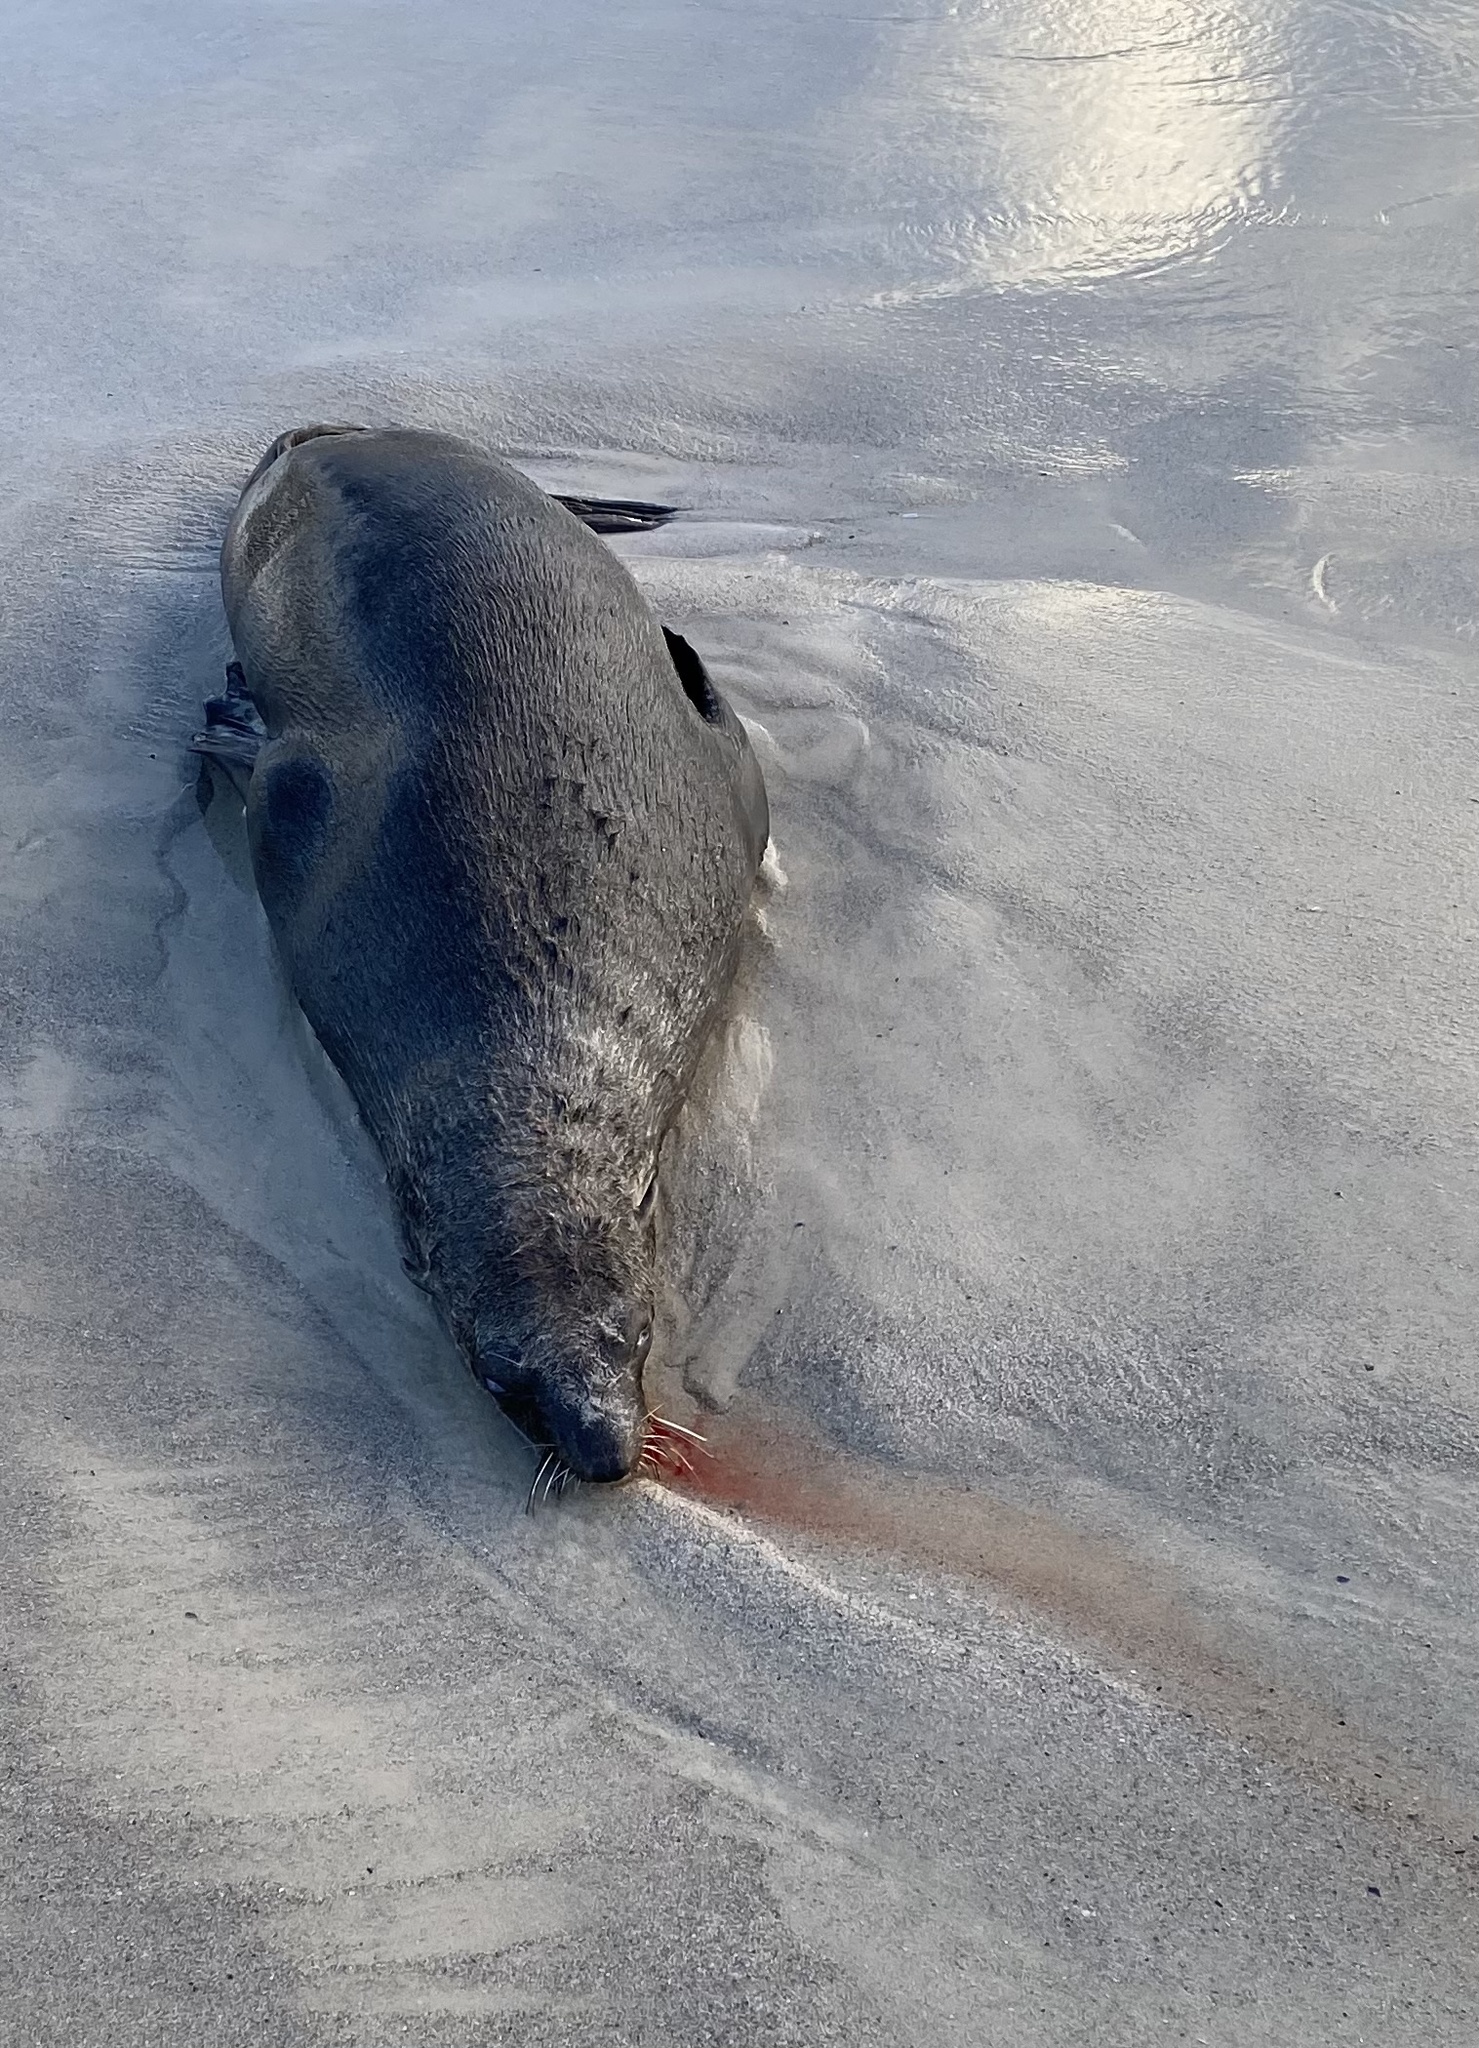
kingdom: Animalia
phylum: Chordata
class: Mammalia
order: Carnivora
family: Otariidae
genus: Arctocephalus
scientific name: Arctocephalus pusillus
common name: Brown fur seal
